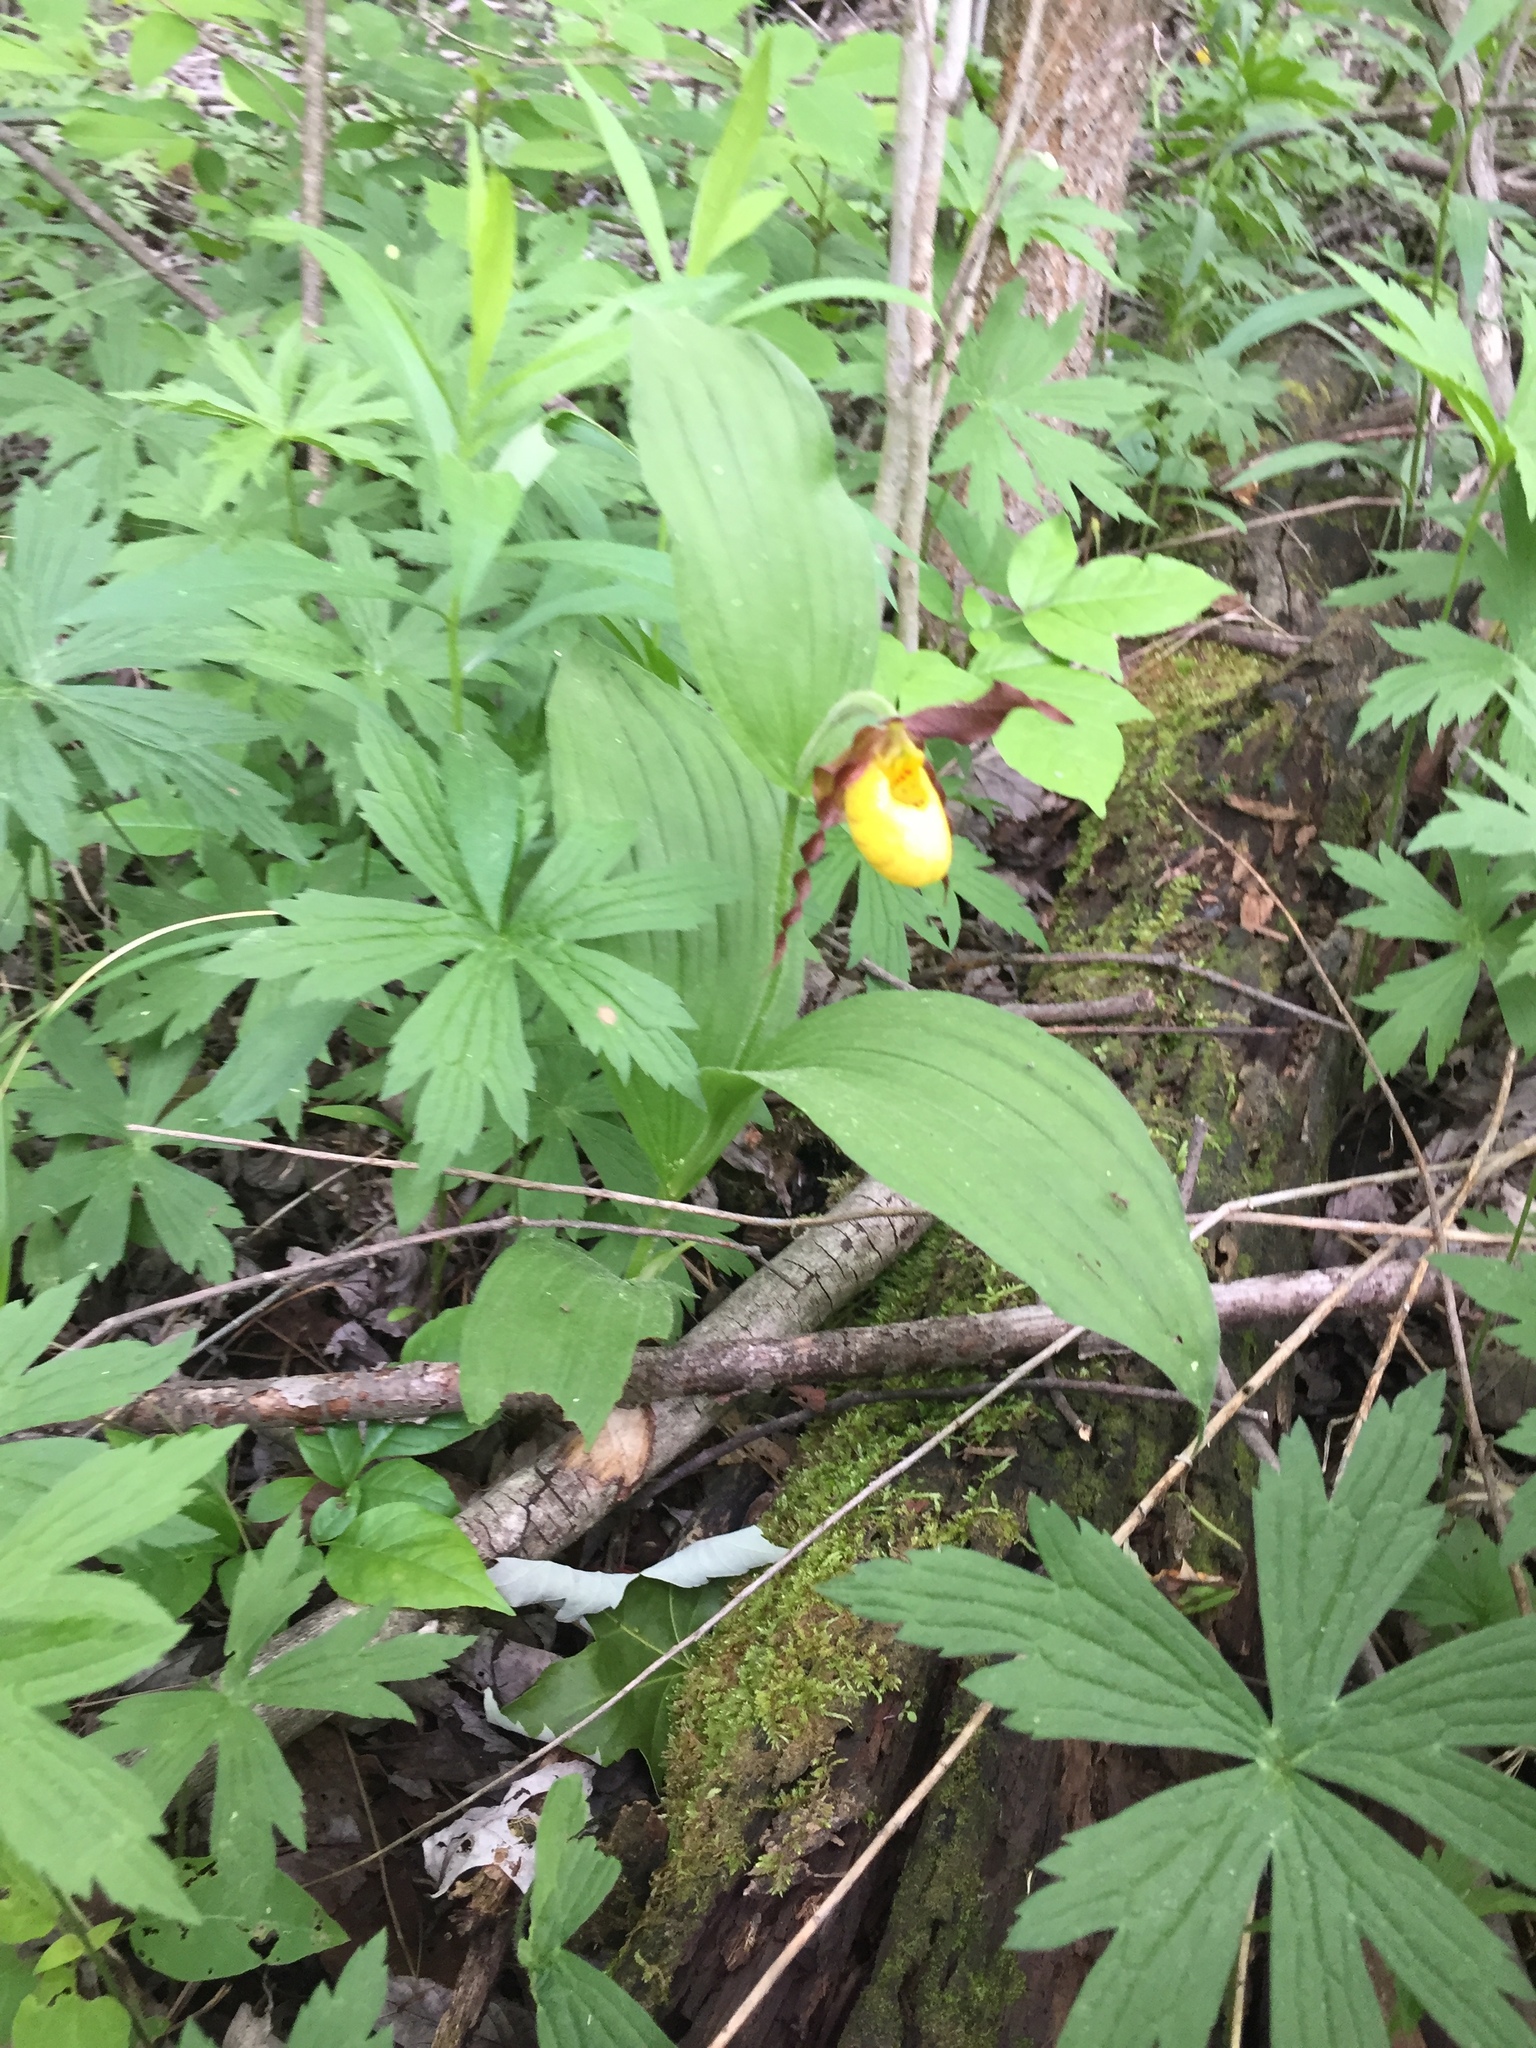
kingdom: Plantae
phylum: Tracheophyta
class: Liliopsida
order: Asparagales
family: Orchidaceae
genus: Cypripedium
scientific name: Cypripedium parviflorum
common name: American yellow lady's-slipper
